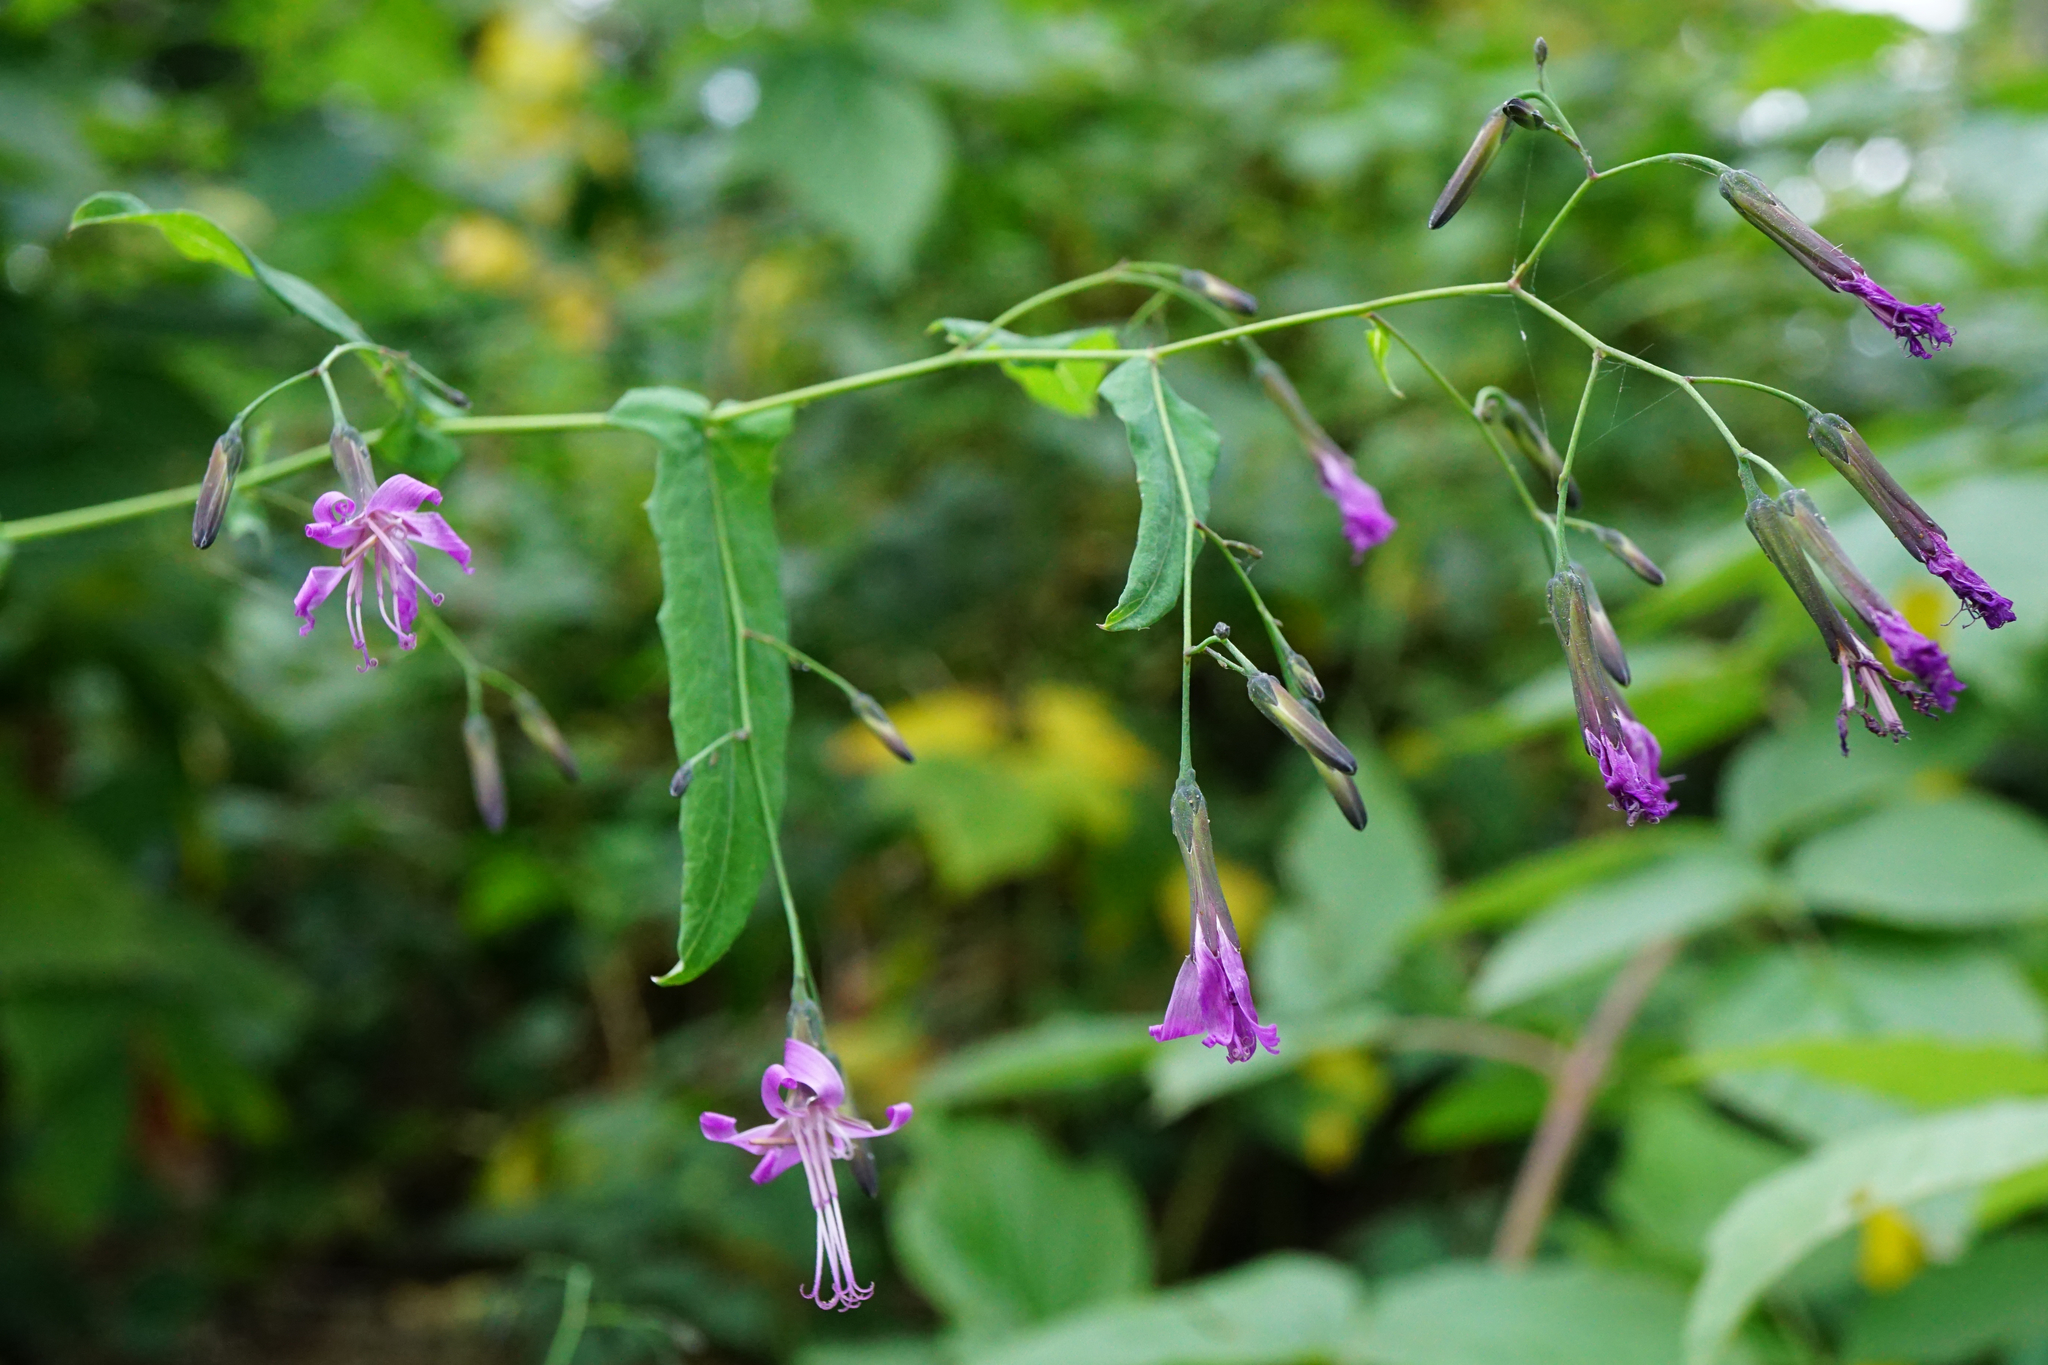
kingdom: Plantae
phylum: Tracheophyta
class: Magnoliopsida
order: Asterales
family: Asteraceae
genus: Prenanthes
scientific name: Prenanthes purpurea
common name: Purple lettuce
